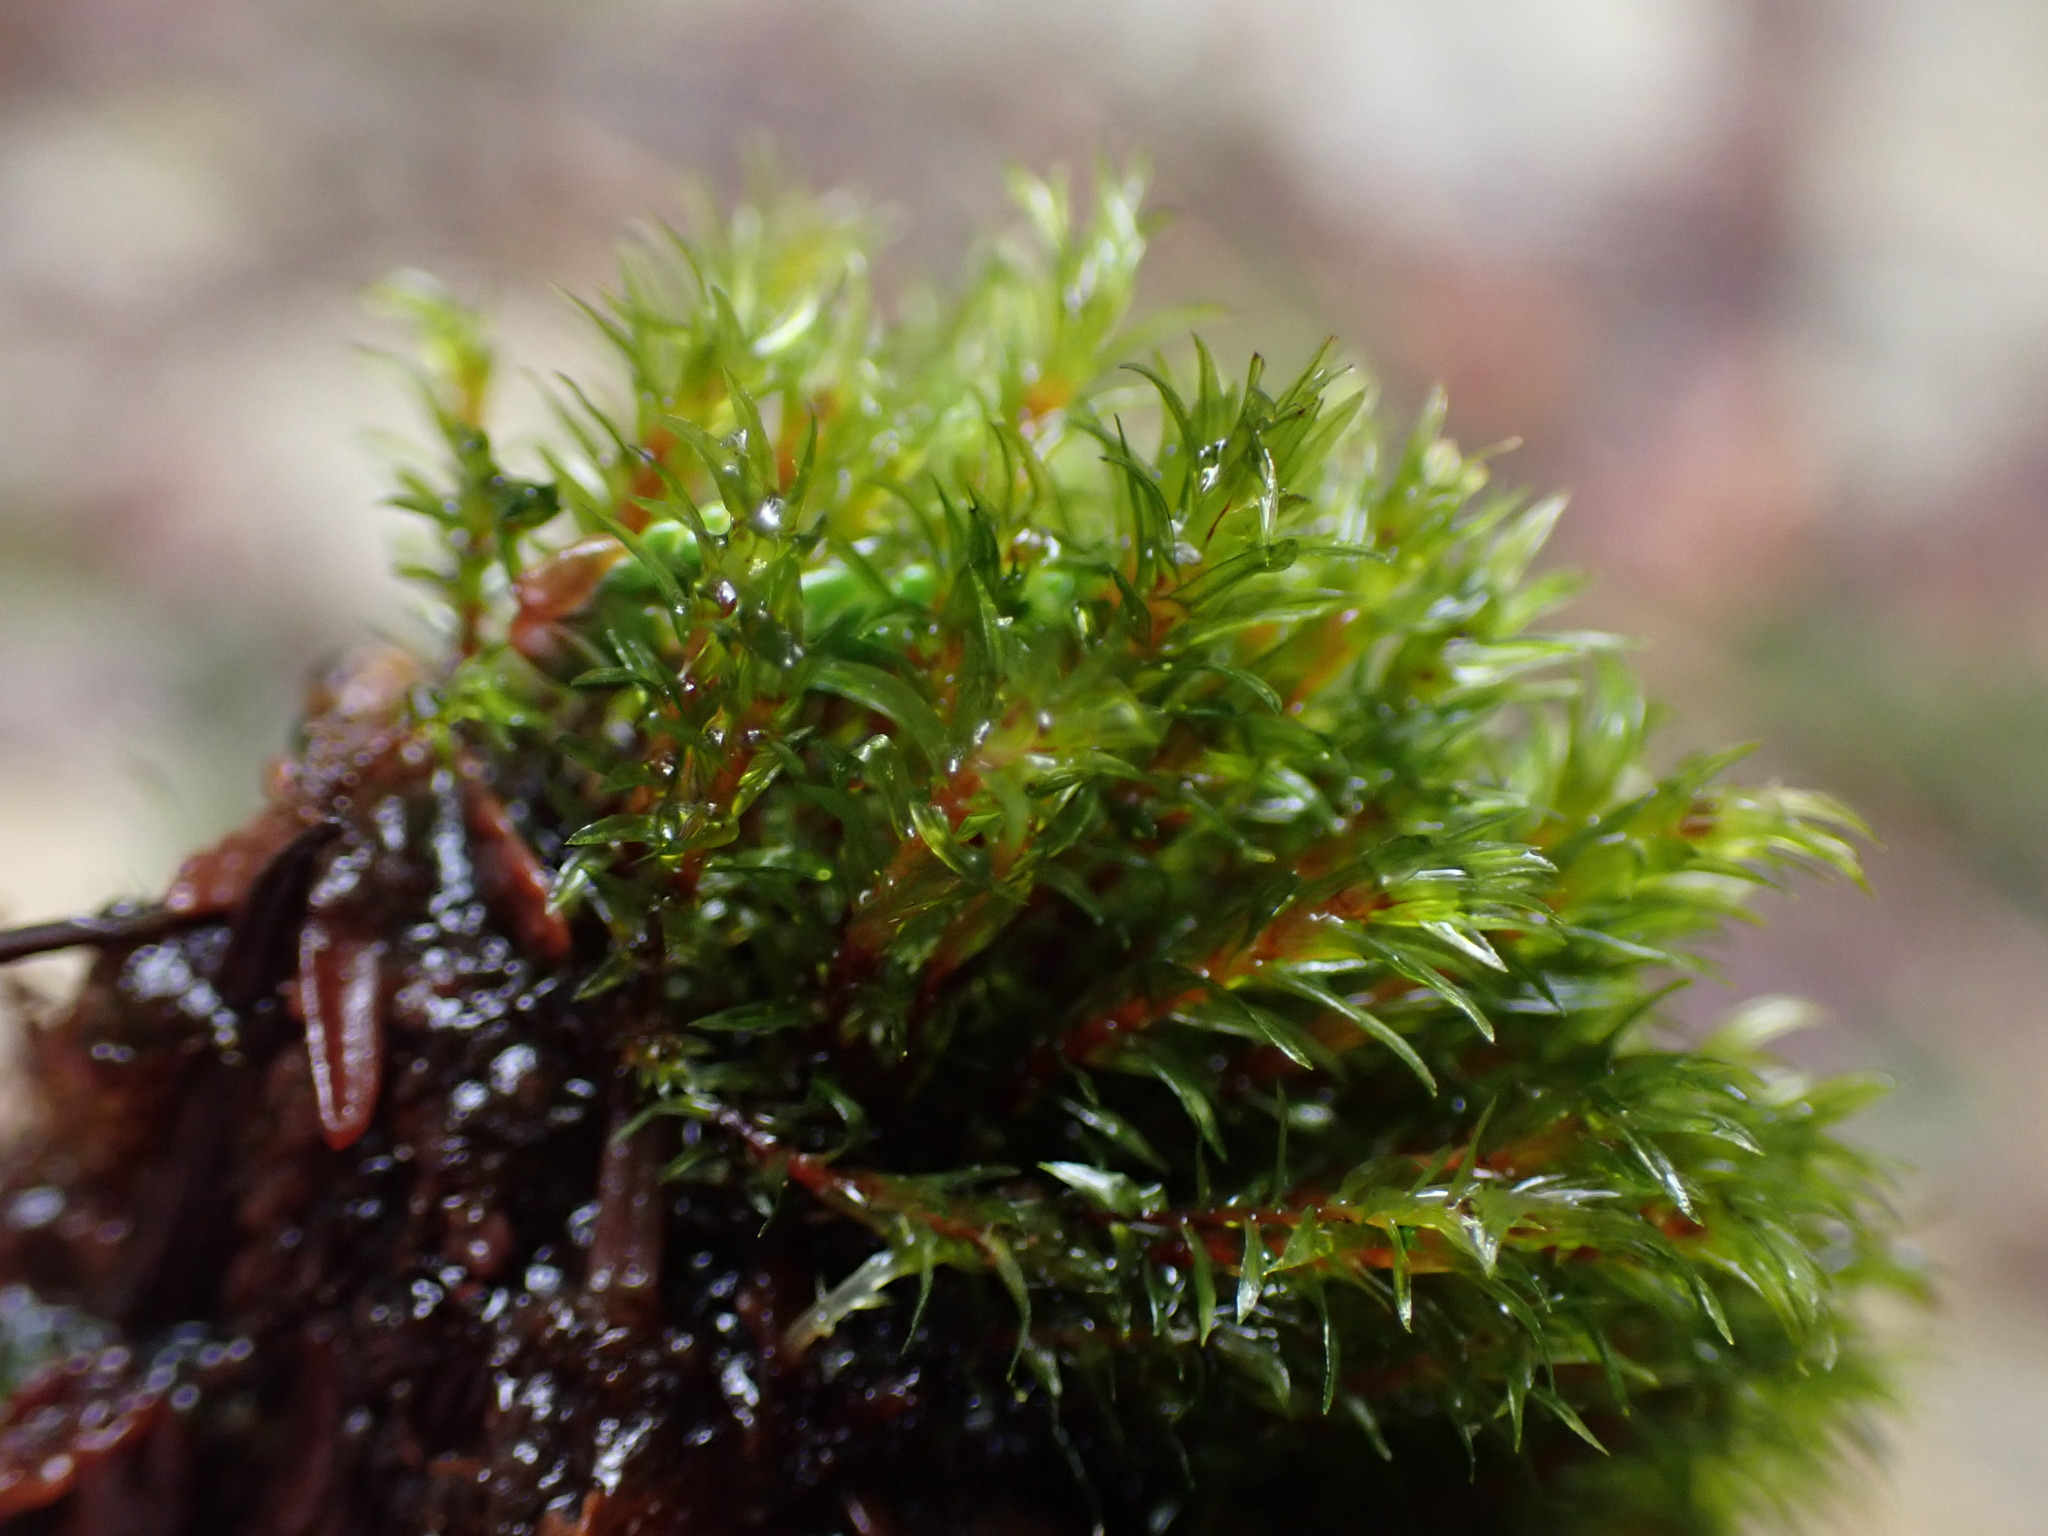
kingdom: Plantae
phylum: Bryophyta
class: Bryopsida
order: Bryales
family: Mniaceae
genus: Pohlia
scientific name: Pohlia longibracteata
